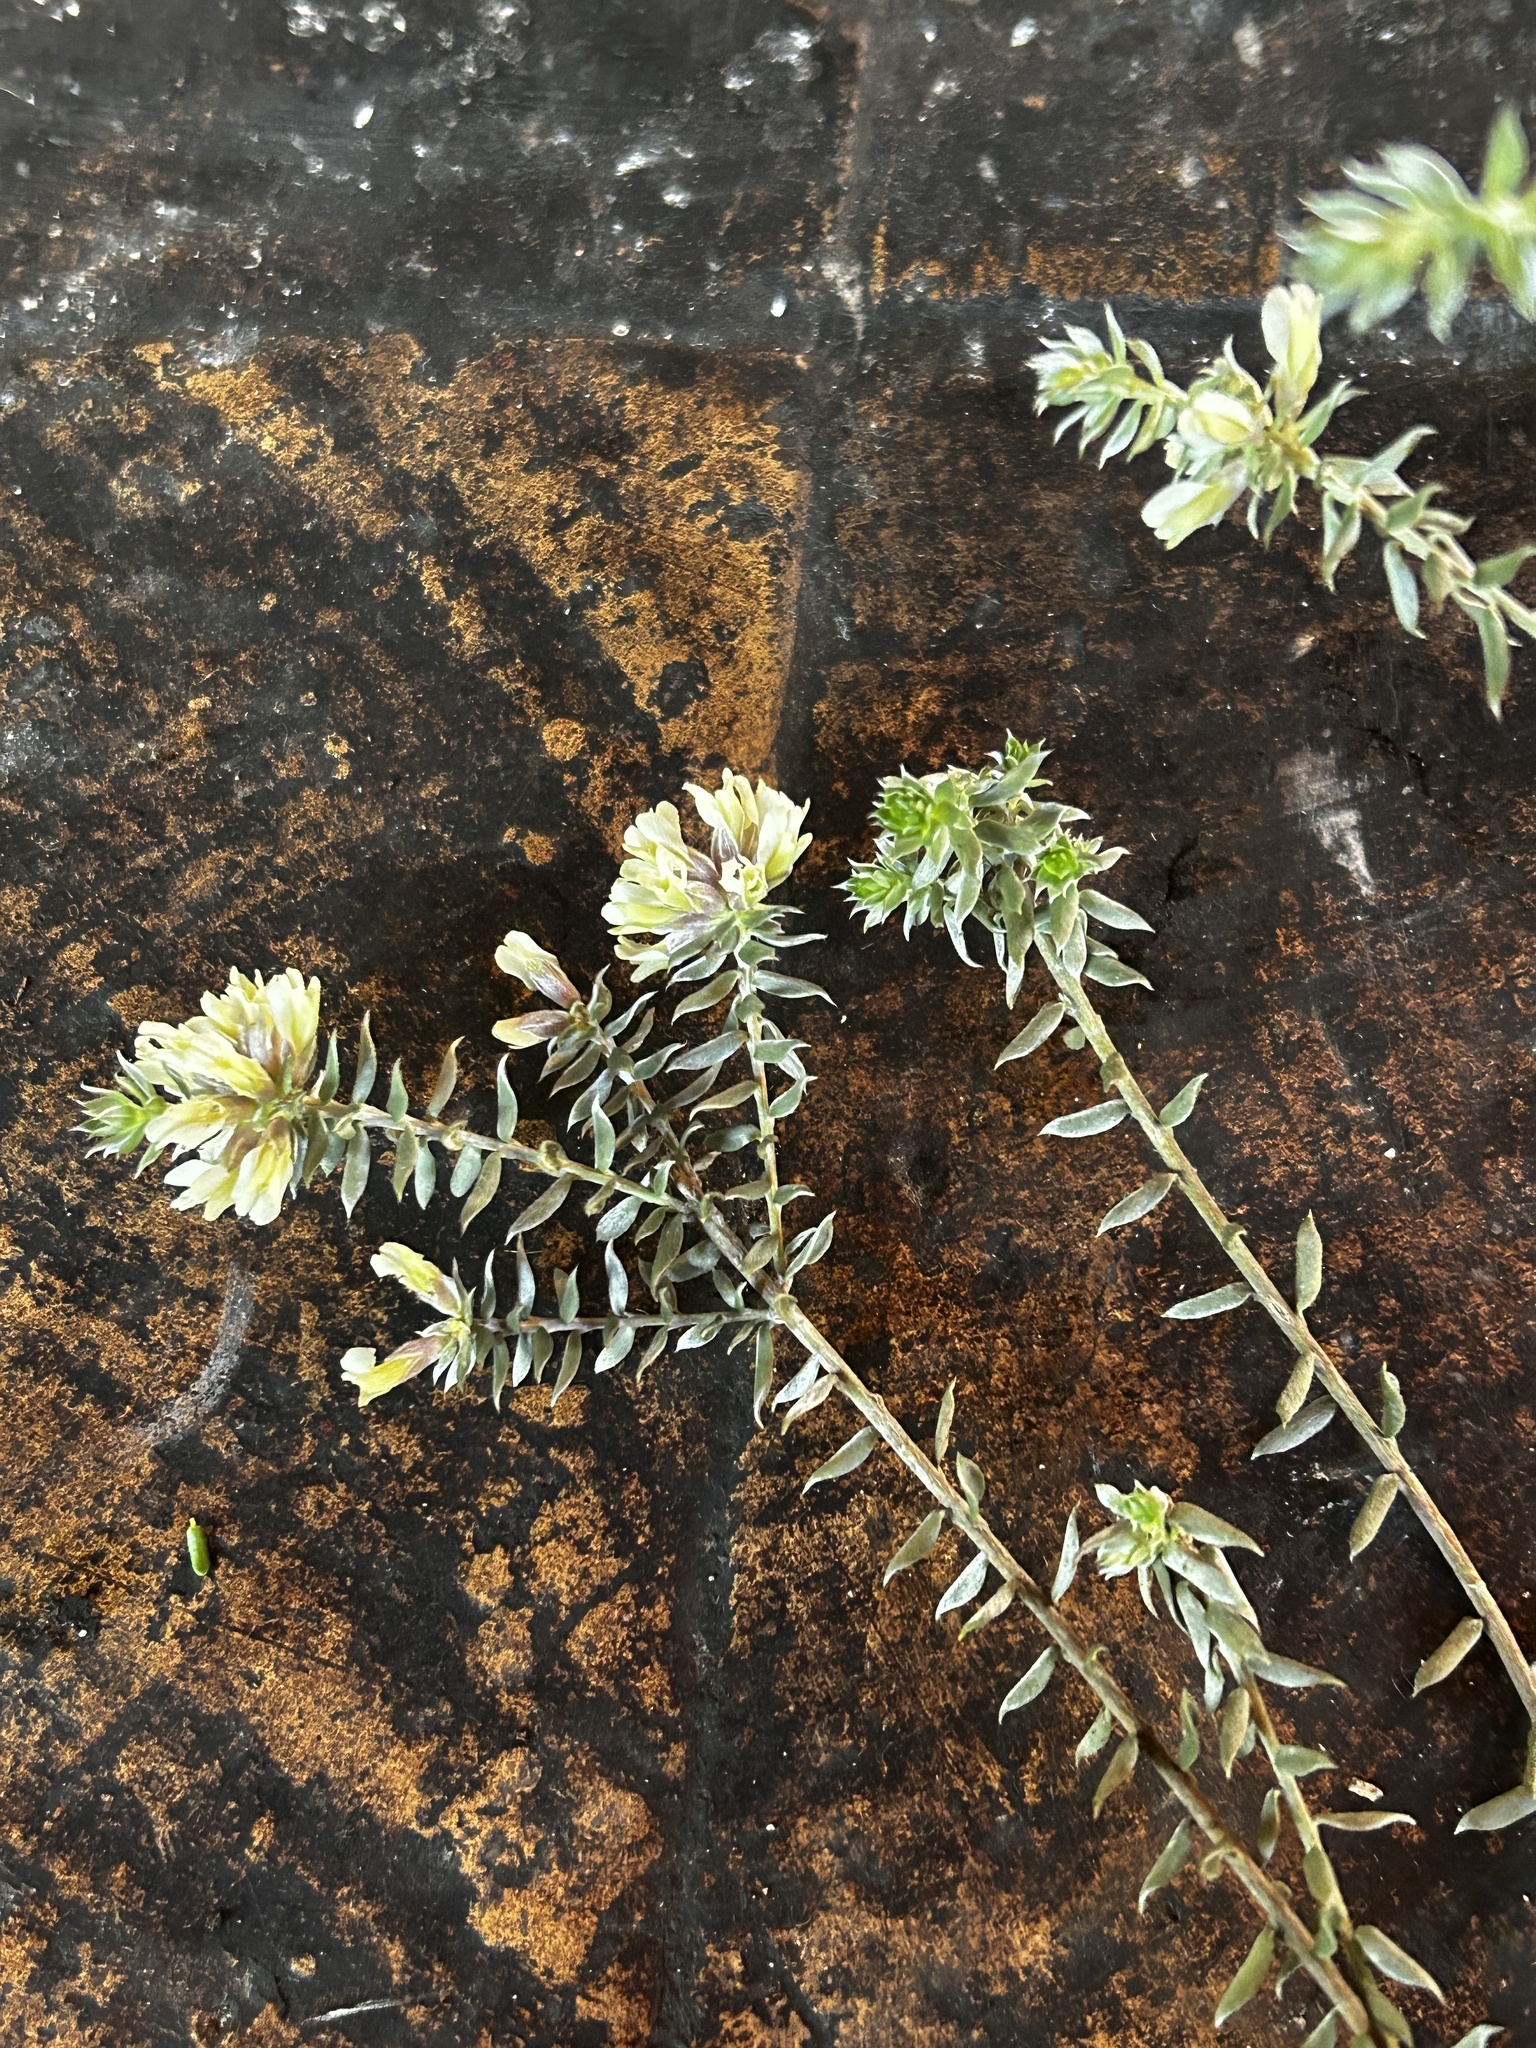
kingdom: Plantae
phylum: Tracheophyta
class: Magnoliopsida
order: Fabales
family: Fabaceae
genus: Amphithalea
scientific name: Amphithalea alba
